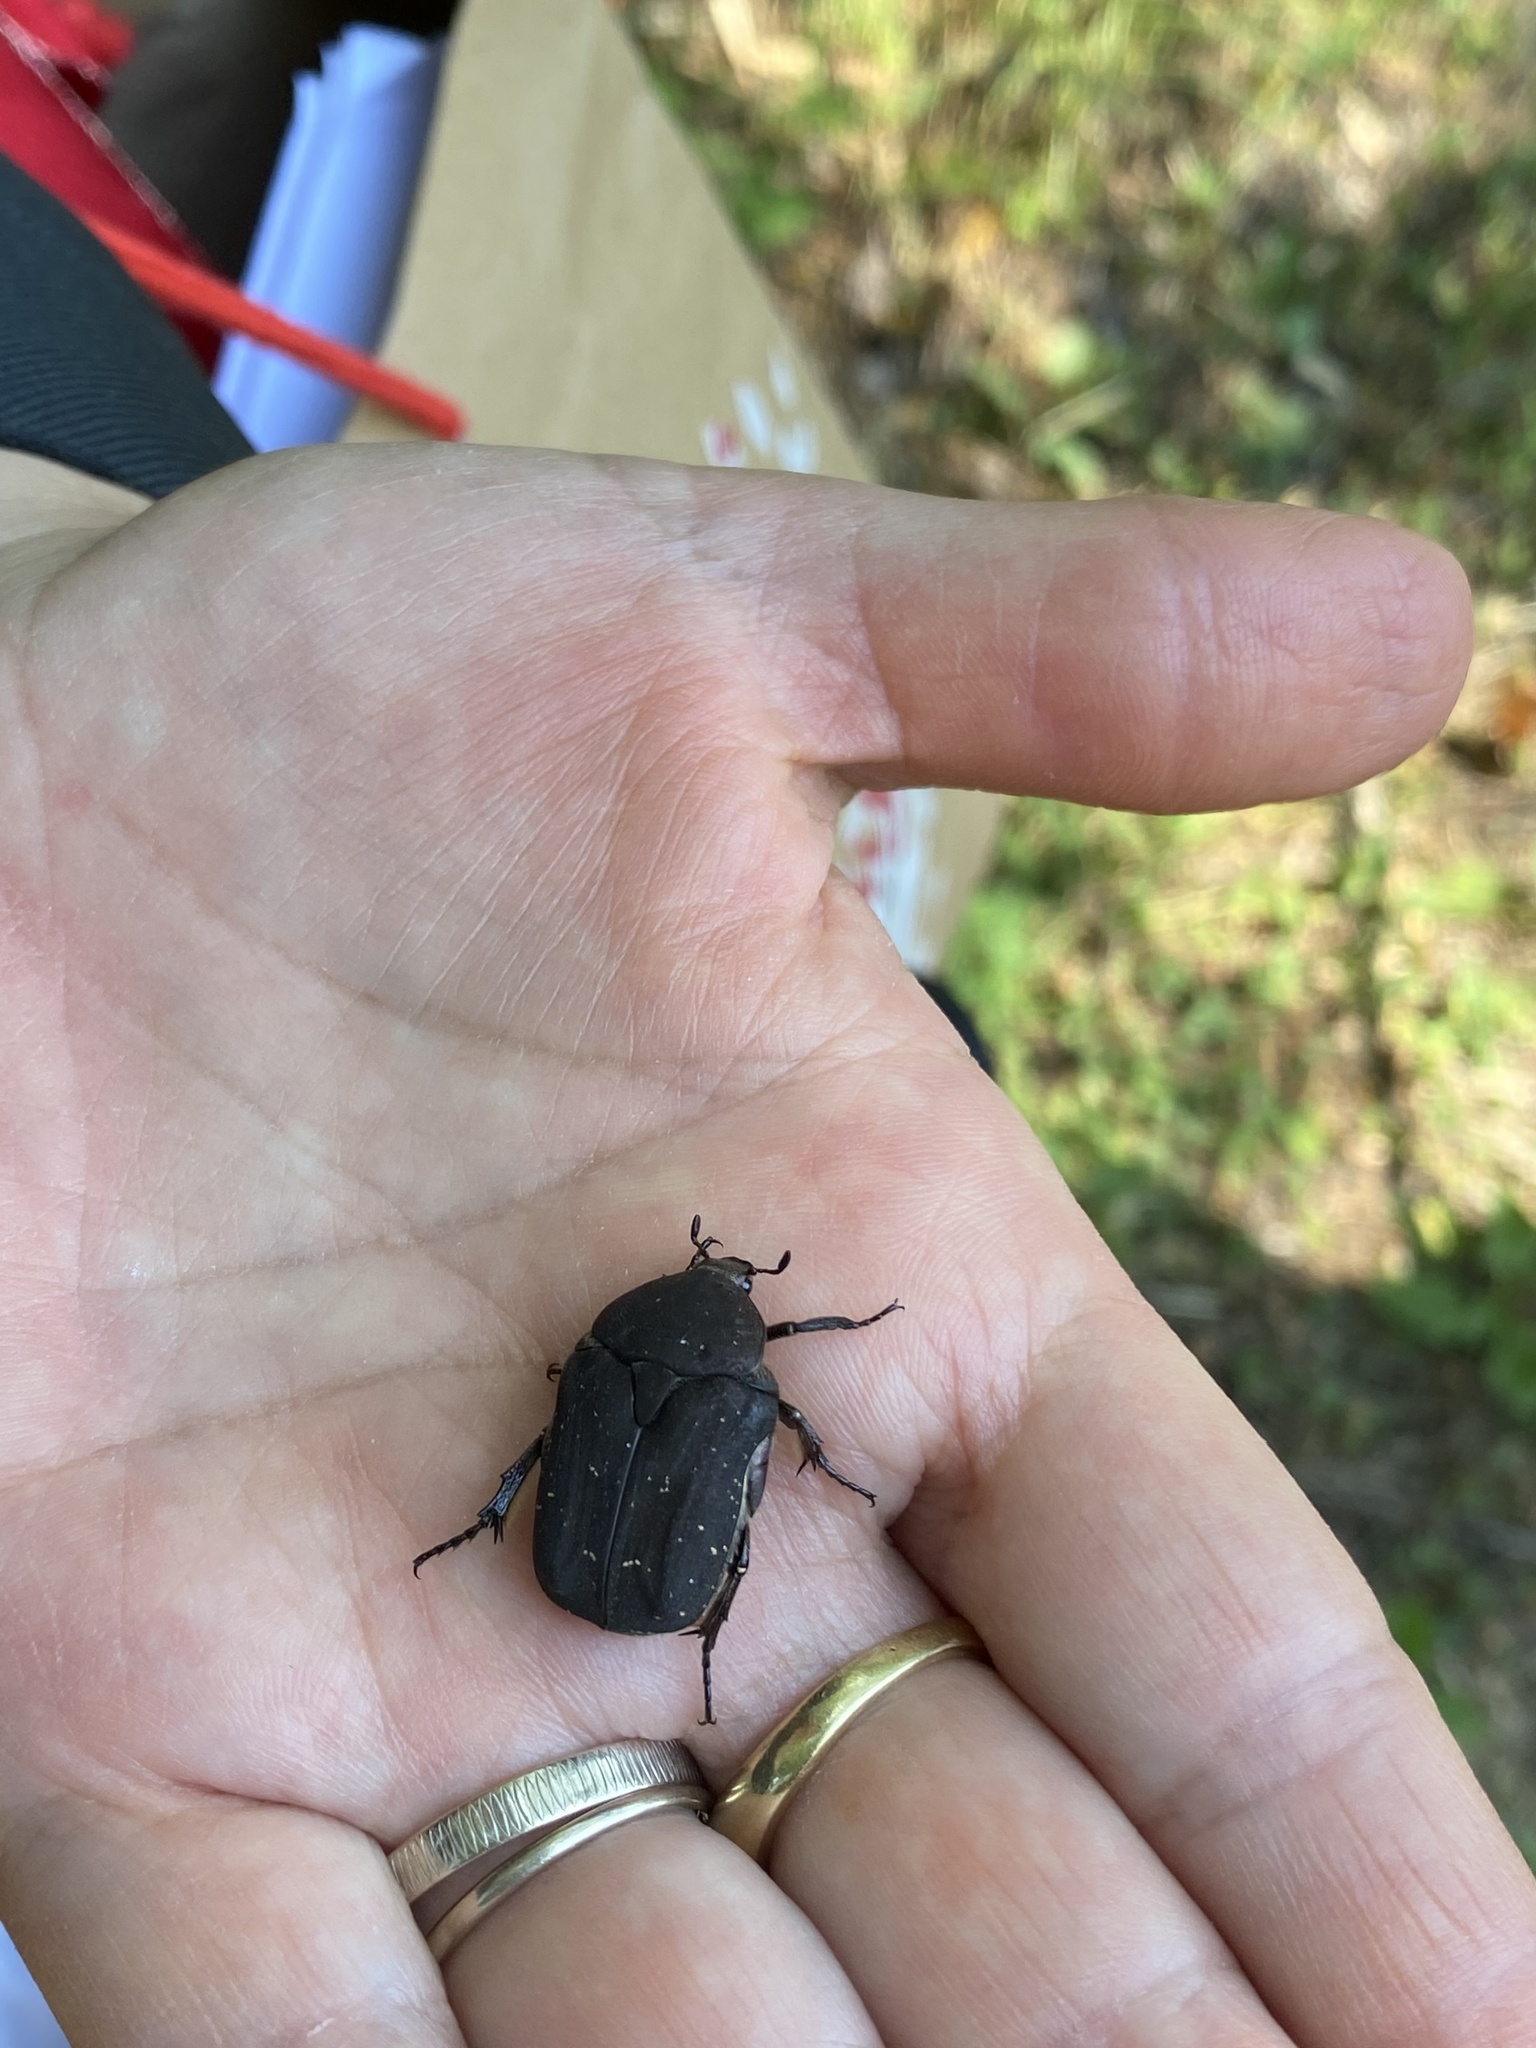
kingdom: Animalia
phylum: Arthropoda
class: Insecta
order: Coleoptera
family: Scarabaeidae
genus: Protaetia
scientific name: Protaetia morio
